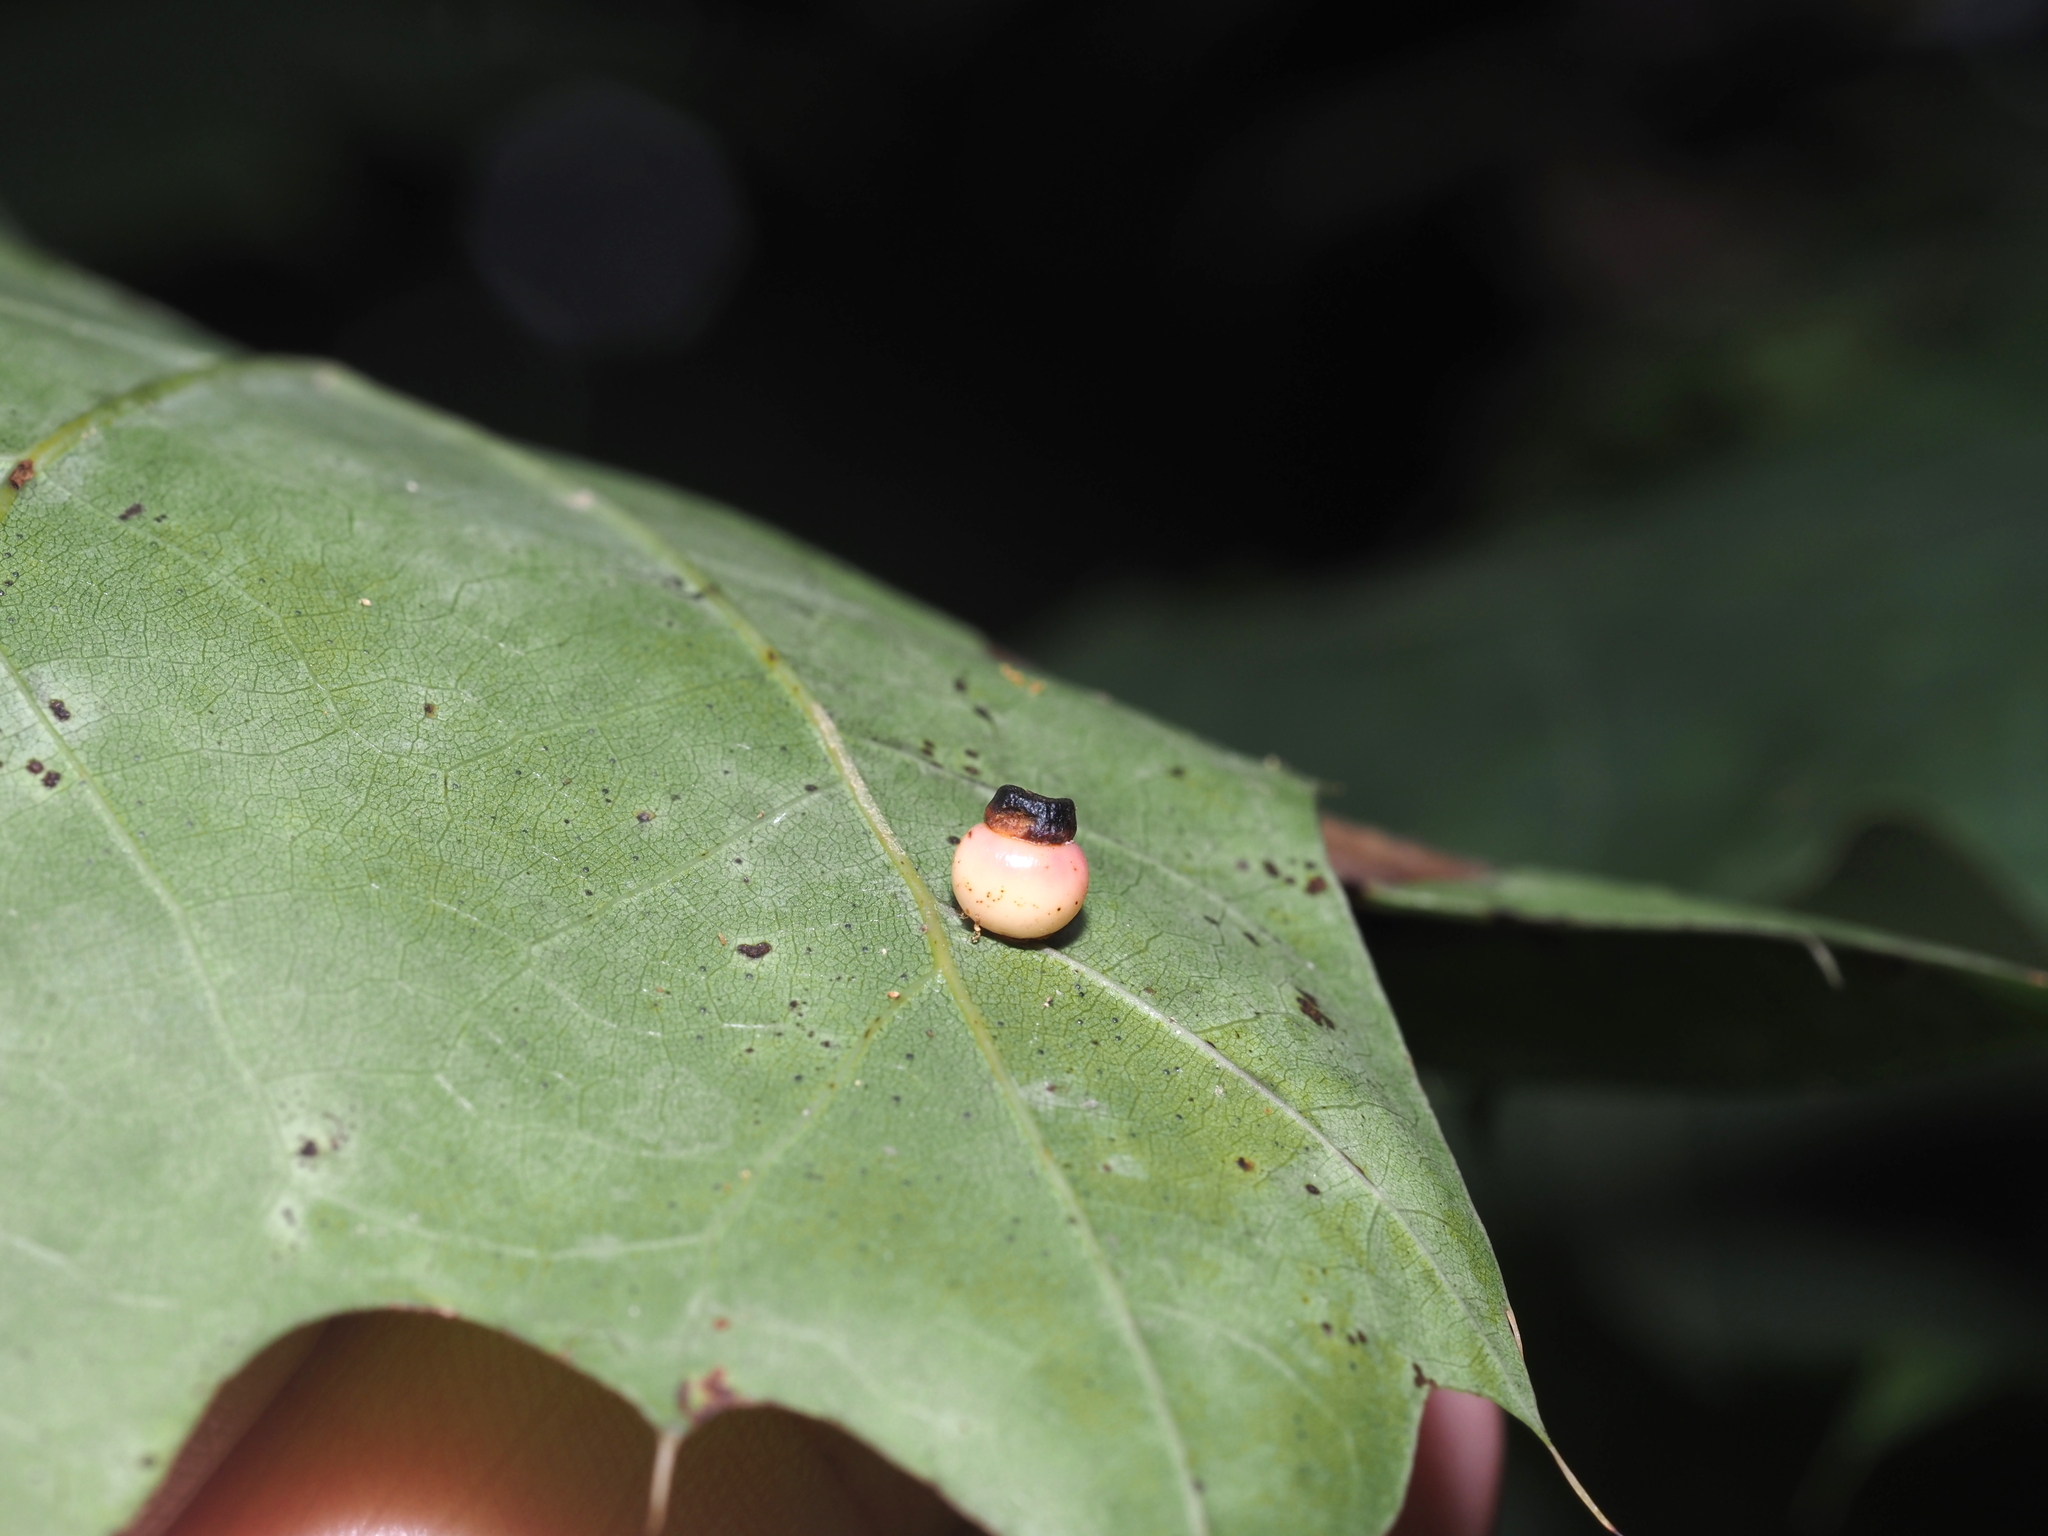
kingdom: Animalia
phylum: Arthropoda
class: Insecta
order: Hymenoptera
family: Cynipidae
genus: Kokkocynips
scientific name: Kokkocynips rileyi
